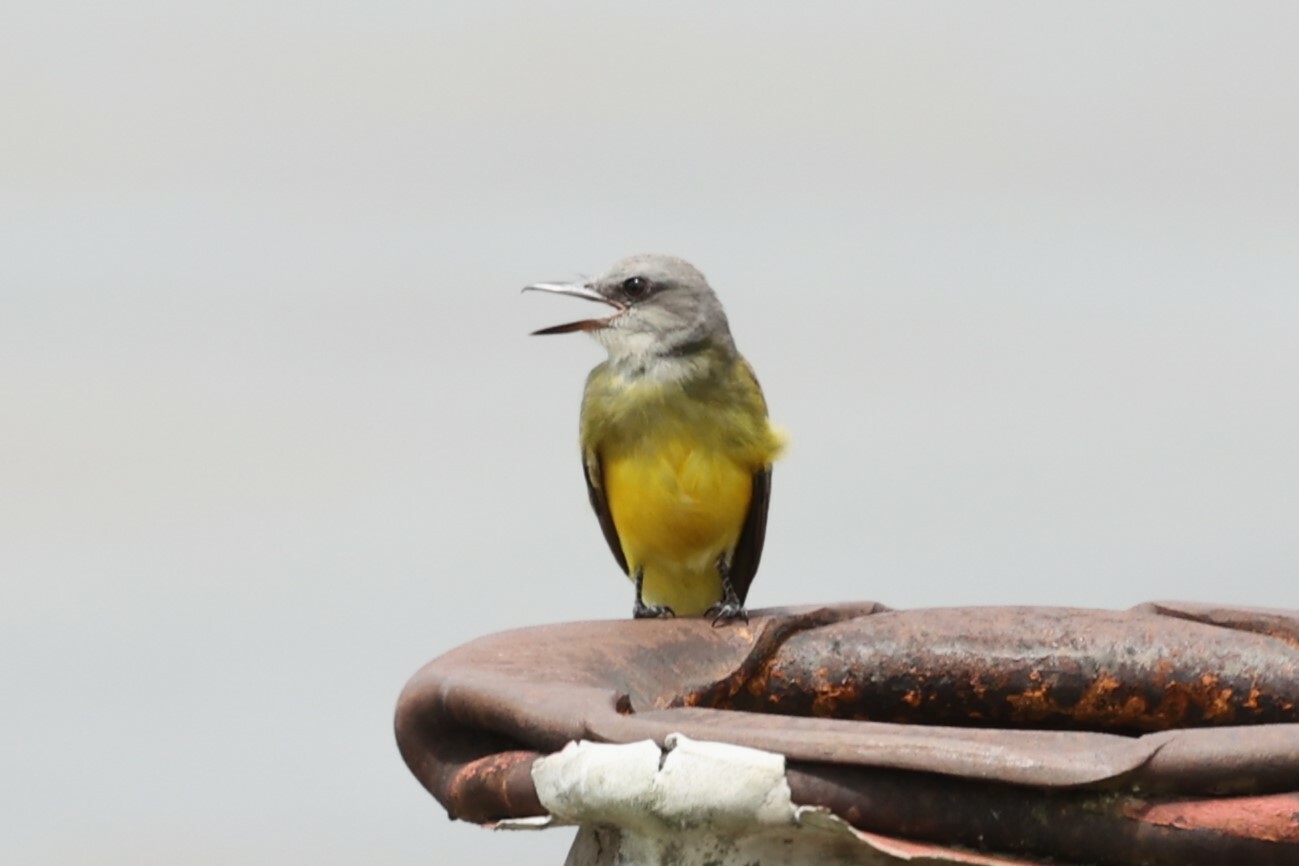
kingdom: Animalia
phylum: Chordata
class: Aves
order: Passeriformes
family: Tyrannidae
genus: Tyrannus
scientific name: Tyrannus melancholicus
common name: Tropical kingbird
